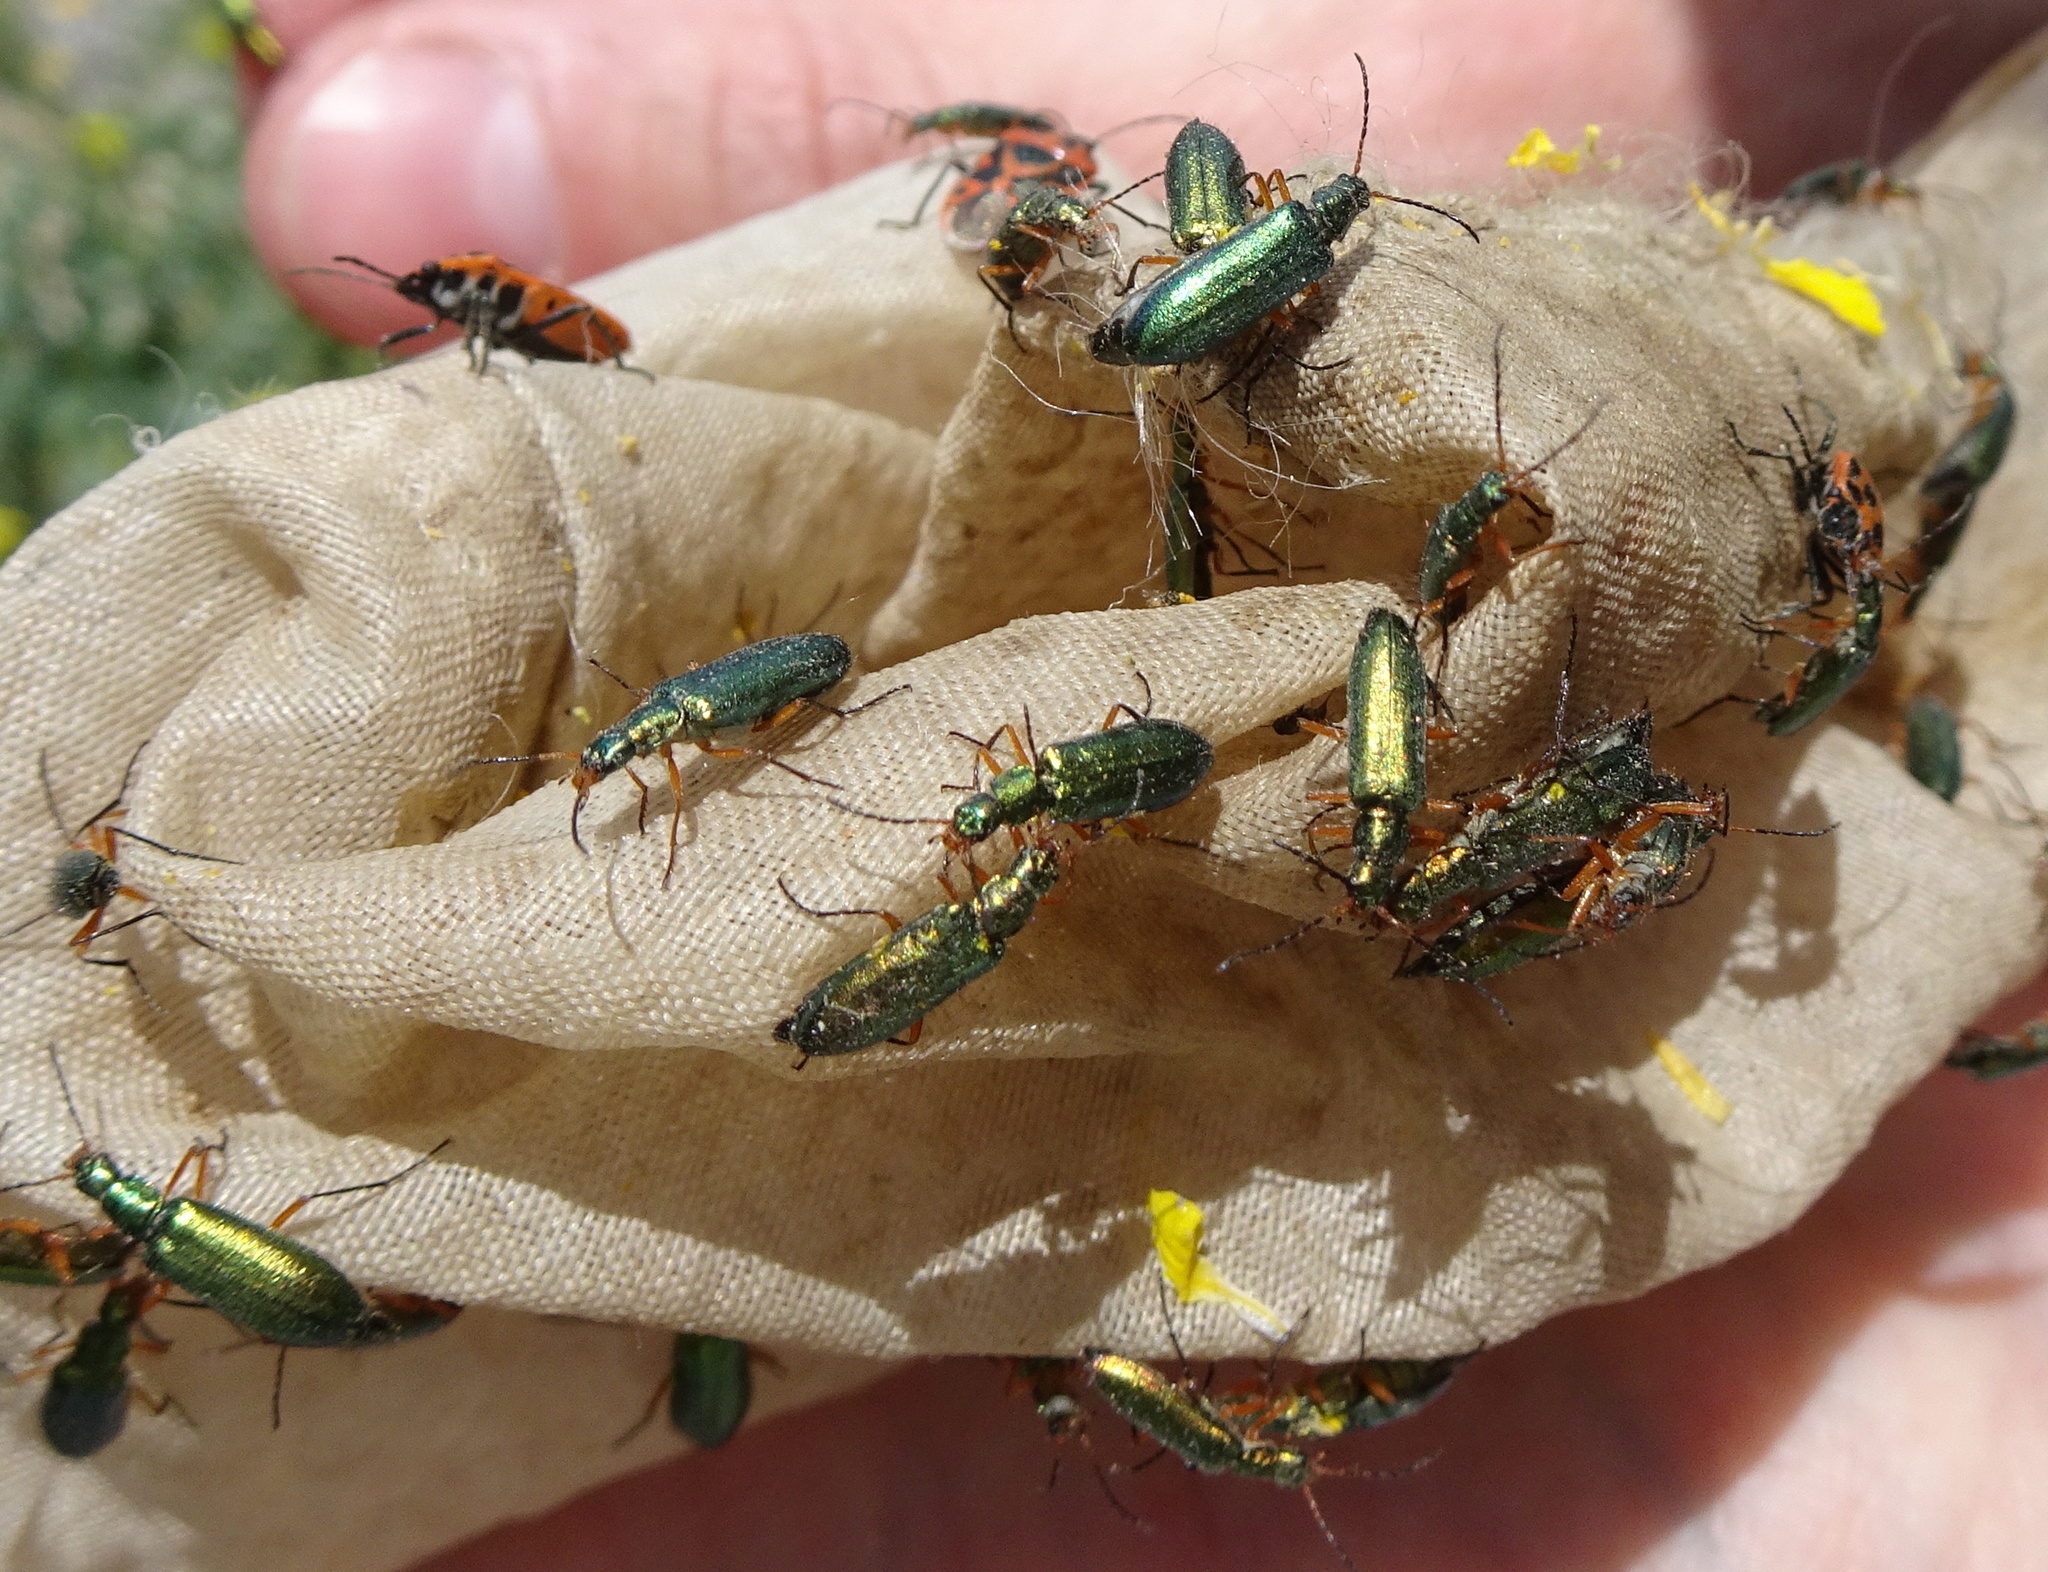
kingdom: Animalia
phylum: Arthropoda
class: Insecta
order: Coleoptera
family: Prionoceridae
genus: Lobonyx
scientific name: Lobonyx varipes
